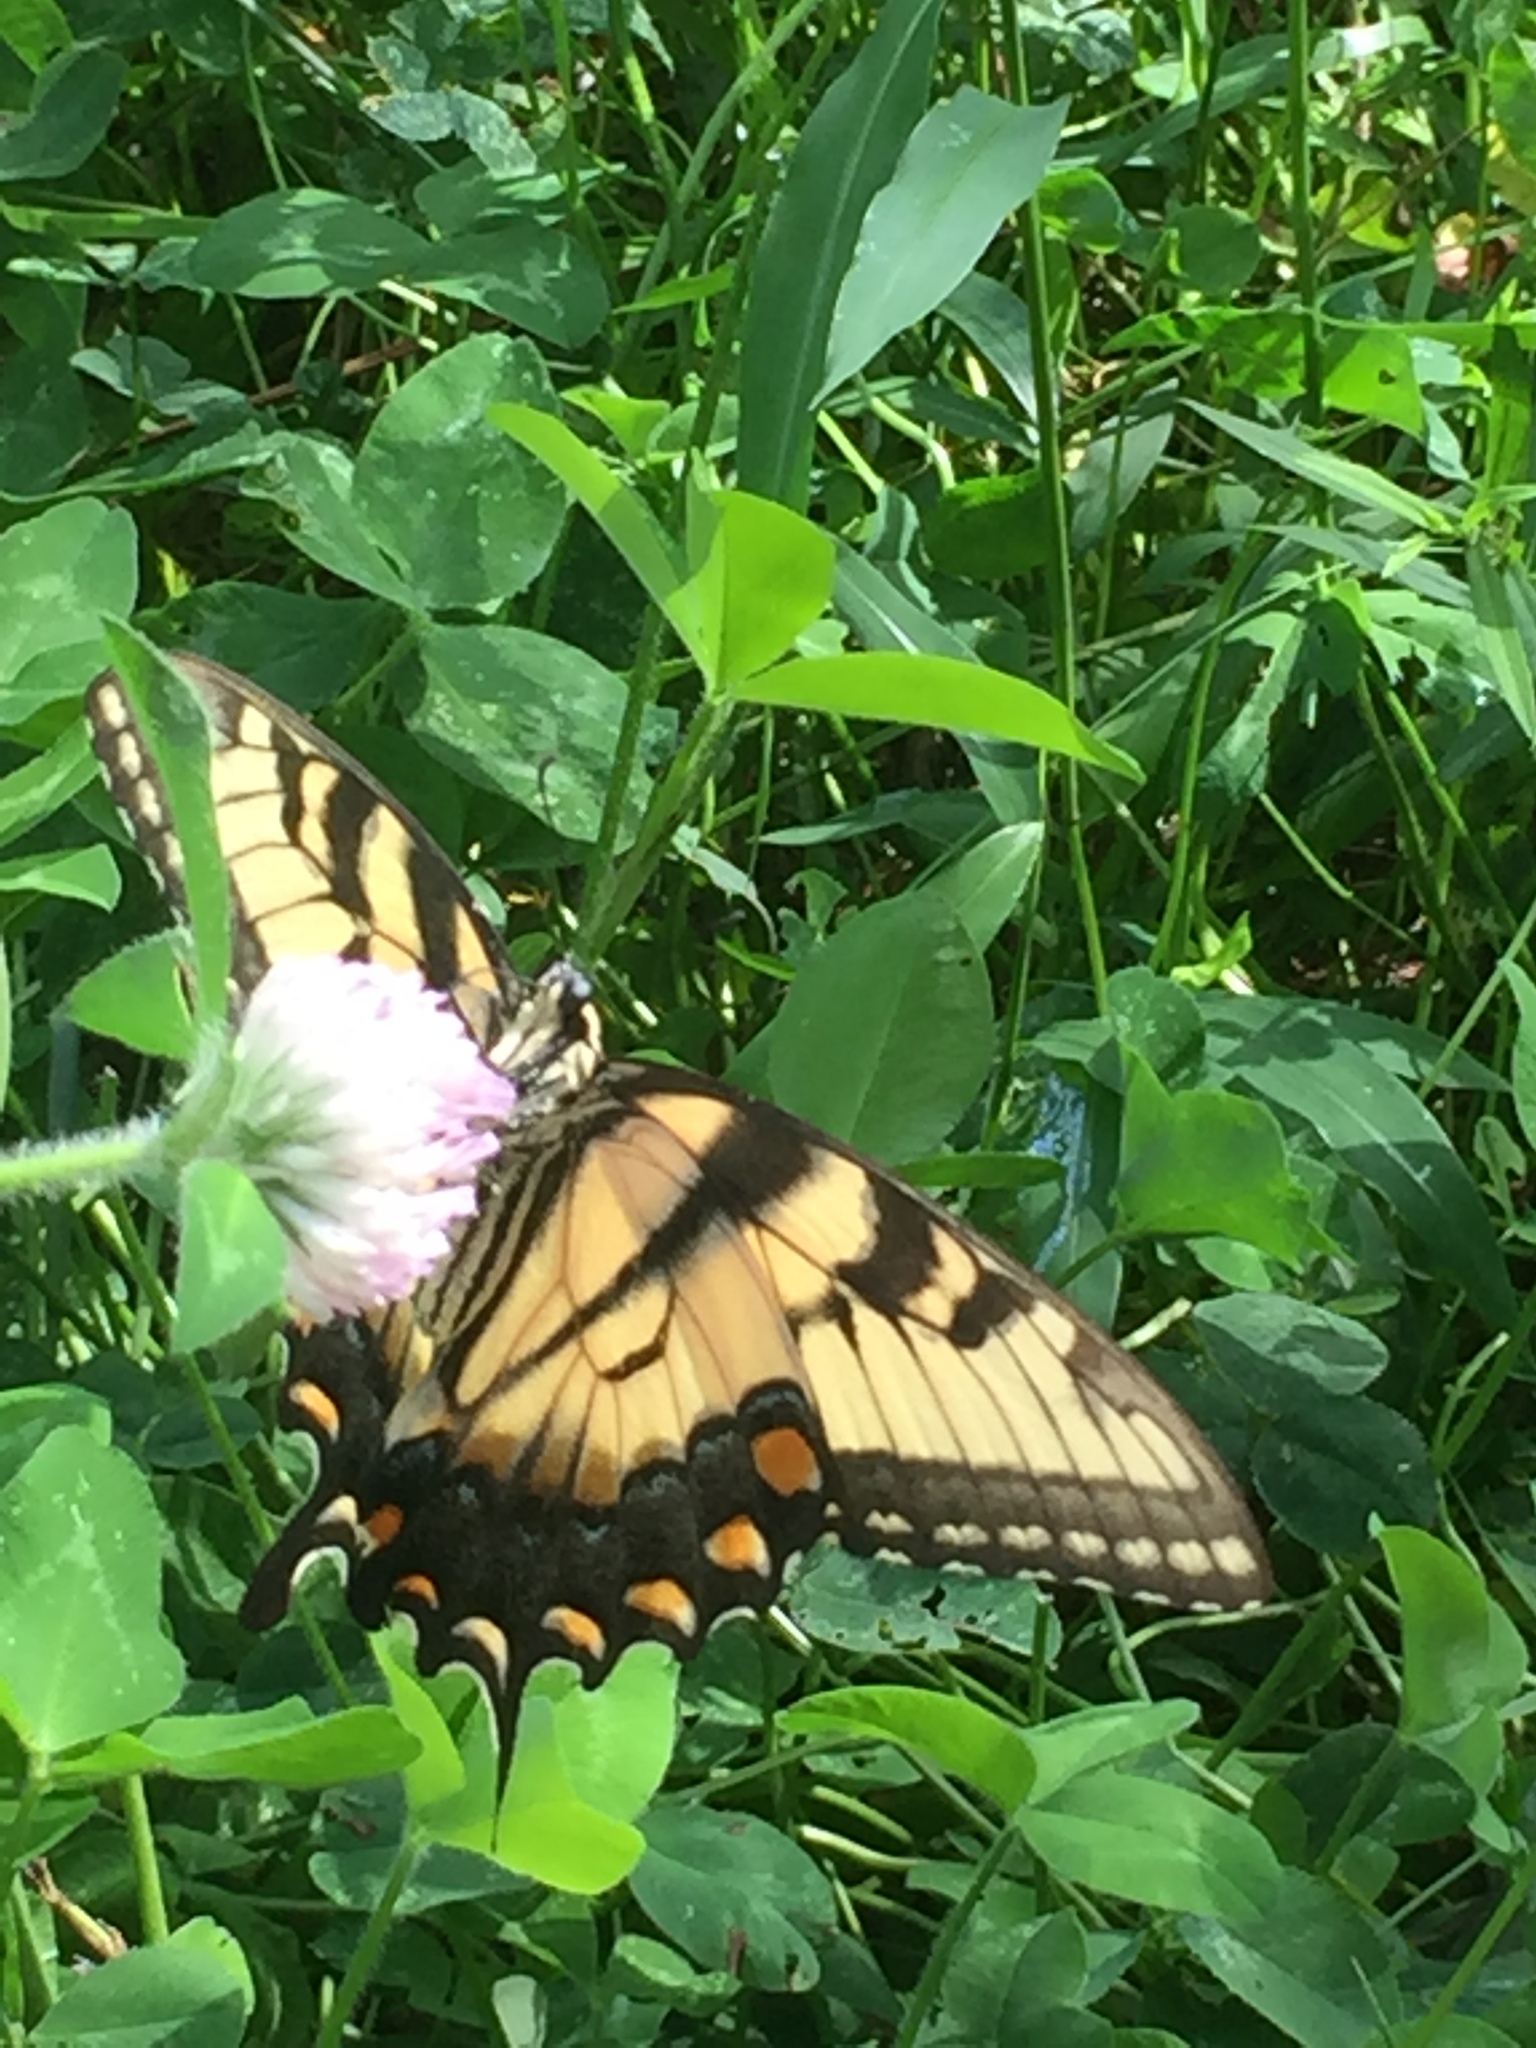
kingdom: Animalia
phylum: Arthropoda
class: Insecta
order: Lepidoptera
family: Papilionidae
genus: Papilio
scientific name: Papilio glaucus
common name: Tiger swallowtail
